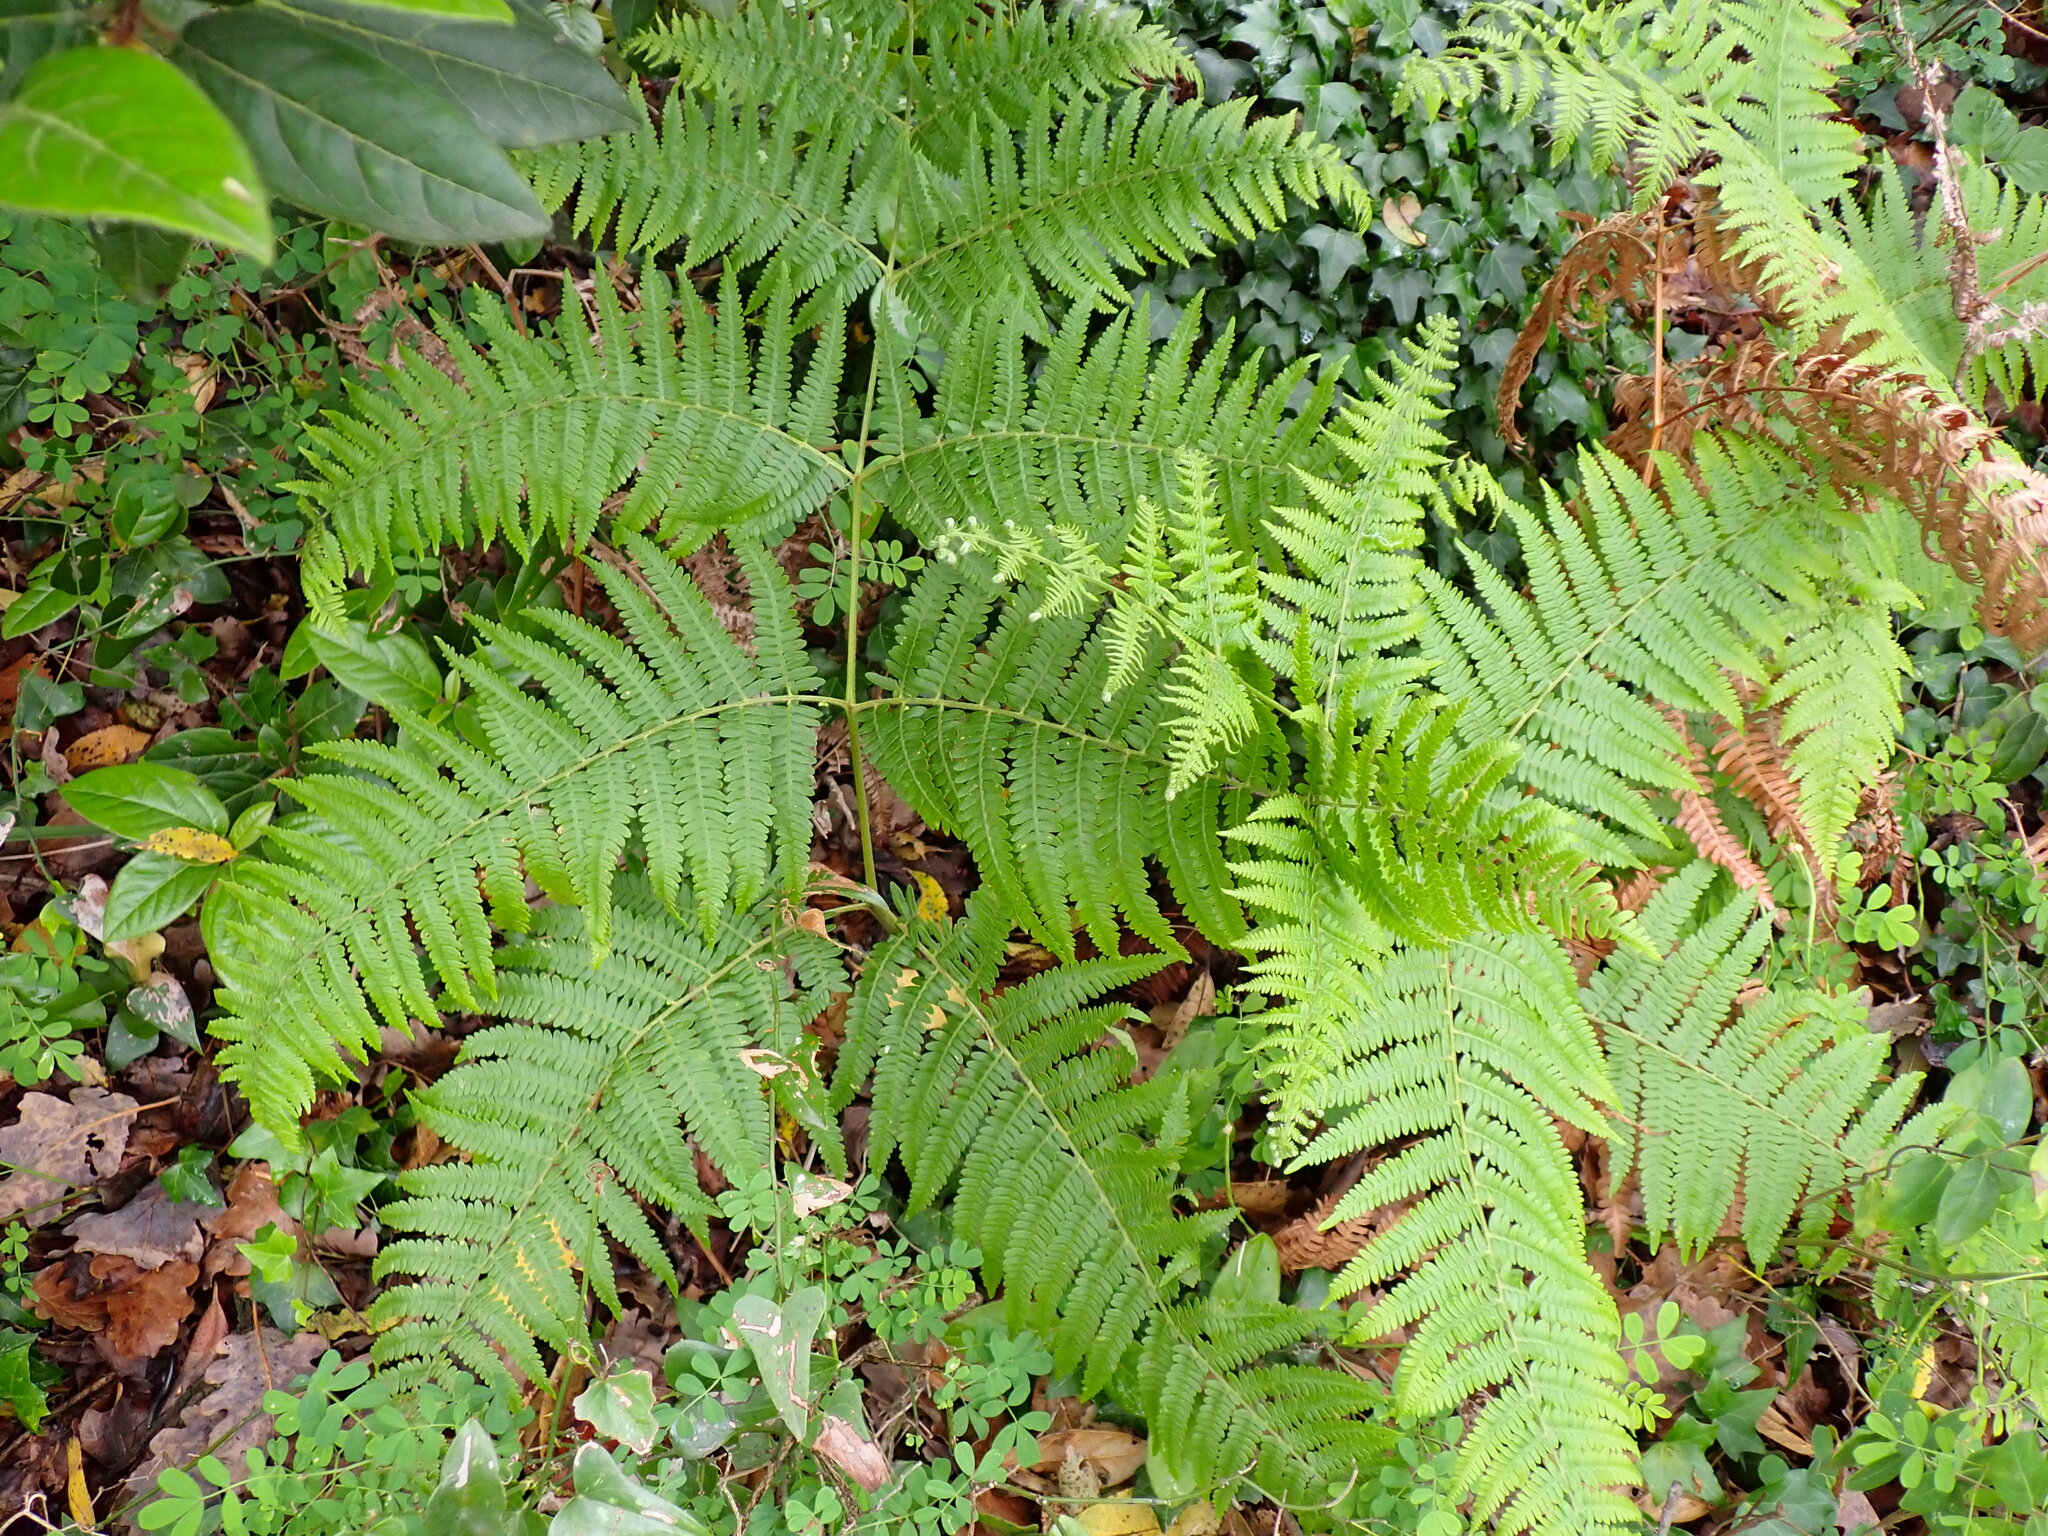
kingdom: Plantae
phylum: Tracheophyta
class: Polypodiopsida
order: Polypodiales
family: Dennstaedtiaceae
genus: Pteridium
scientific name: Pteridium aquilinum
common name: Bracken
